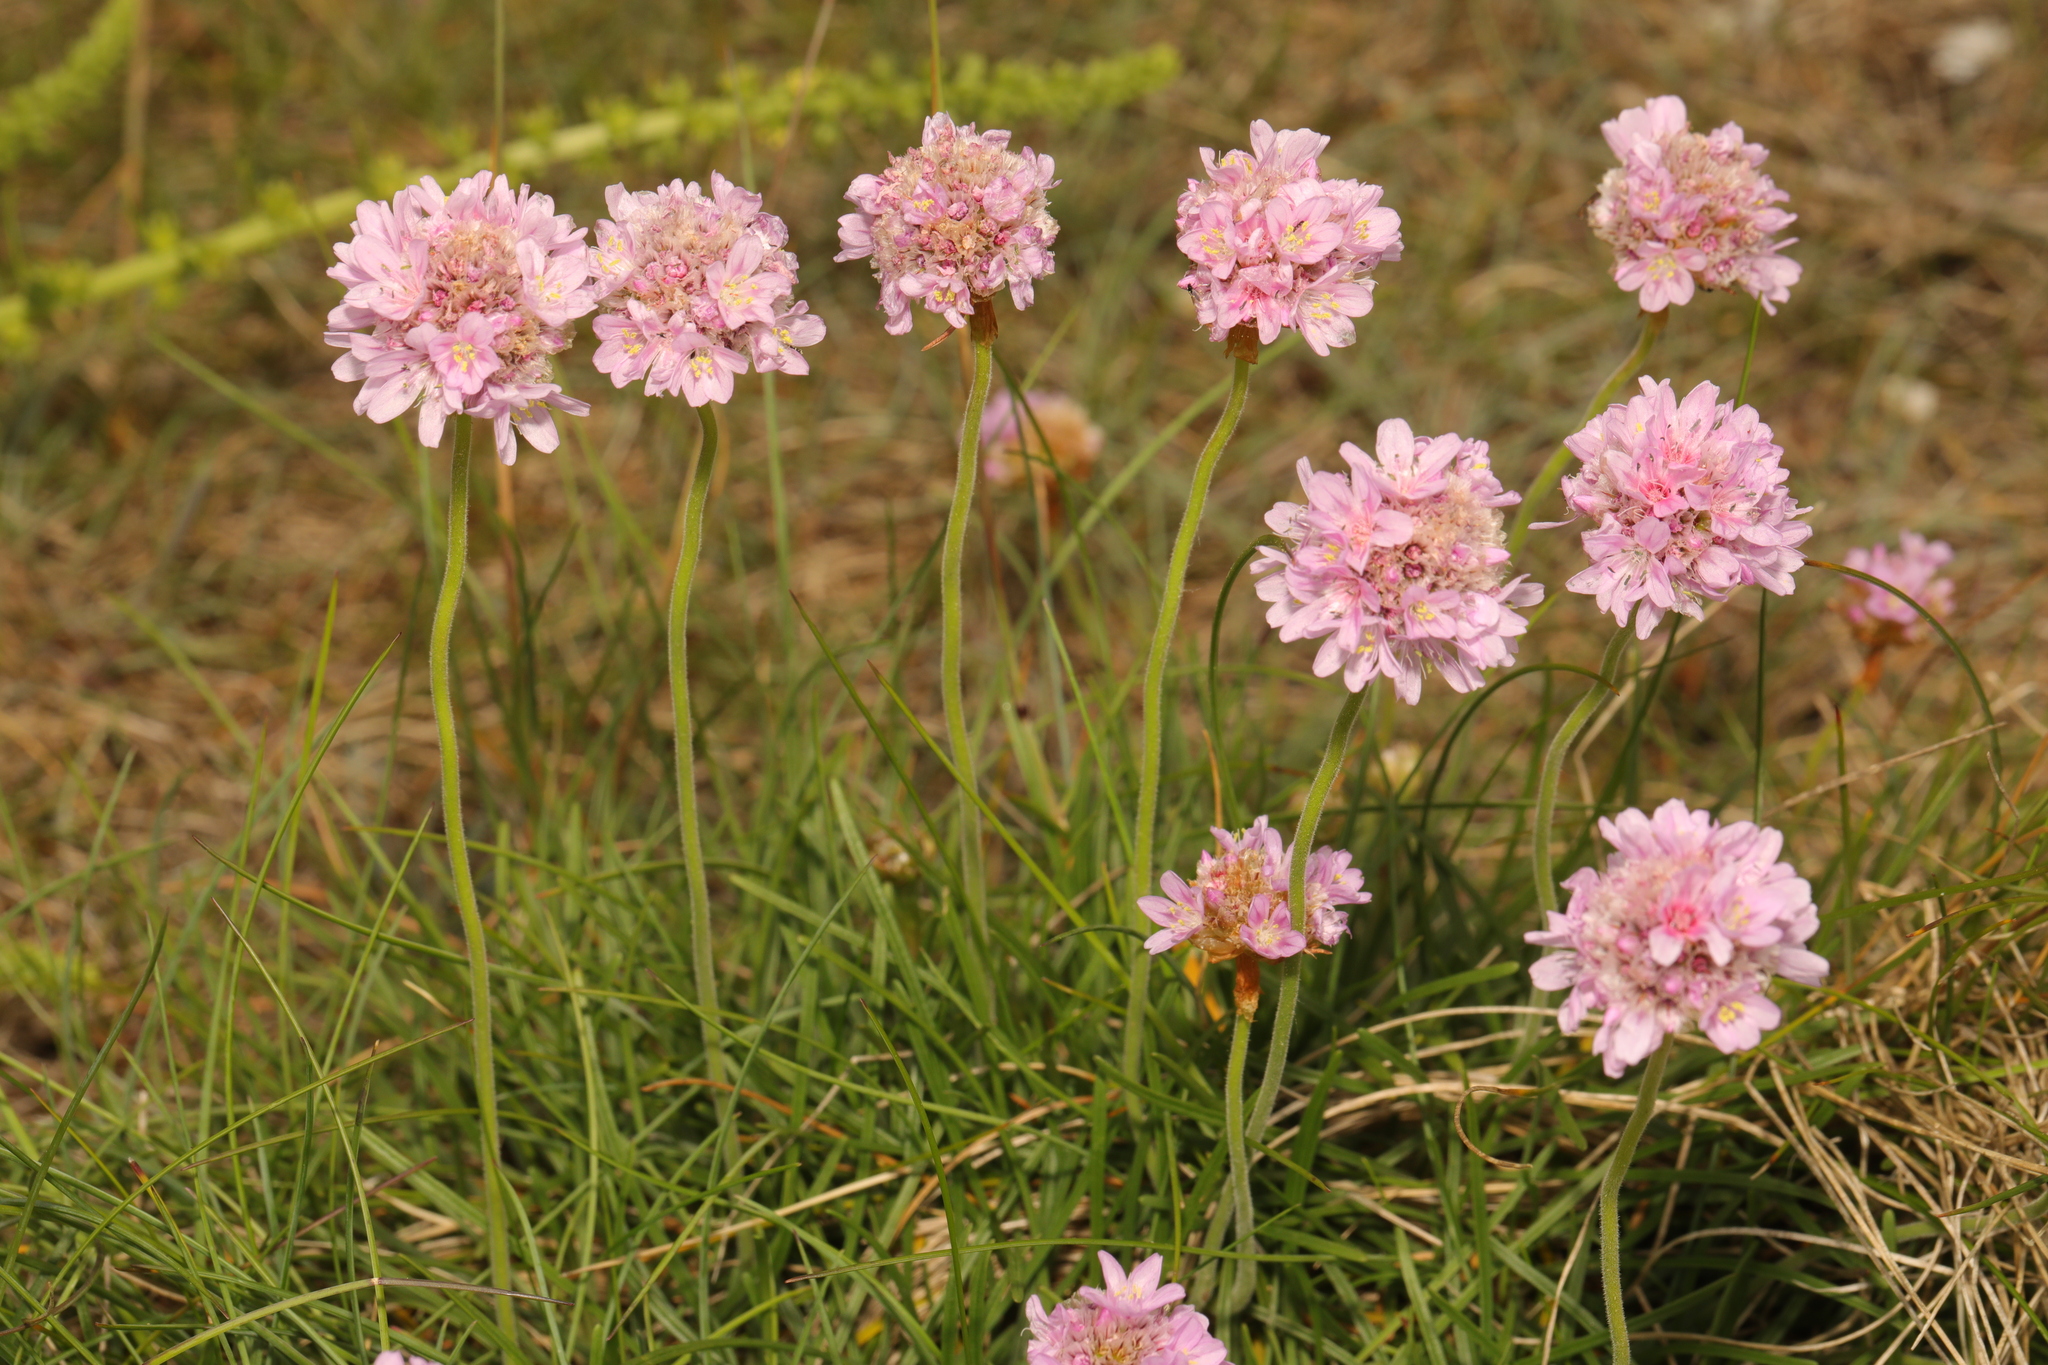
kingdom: Plantae
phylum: Tracheophyta
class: Magnoliopsida
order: Caryophyllales
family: Plumbaginaceae
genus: Armeria
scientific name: Armeria maritima
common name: Thrift
